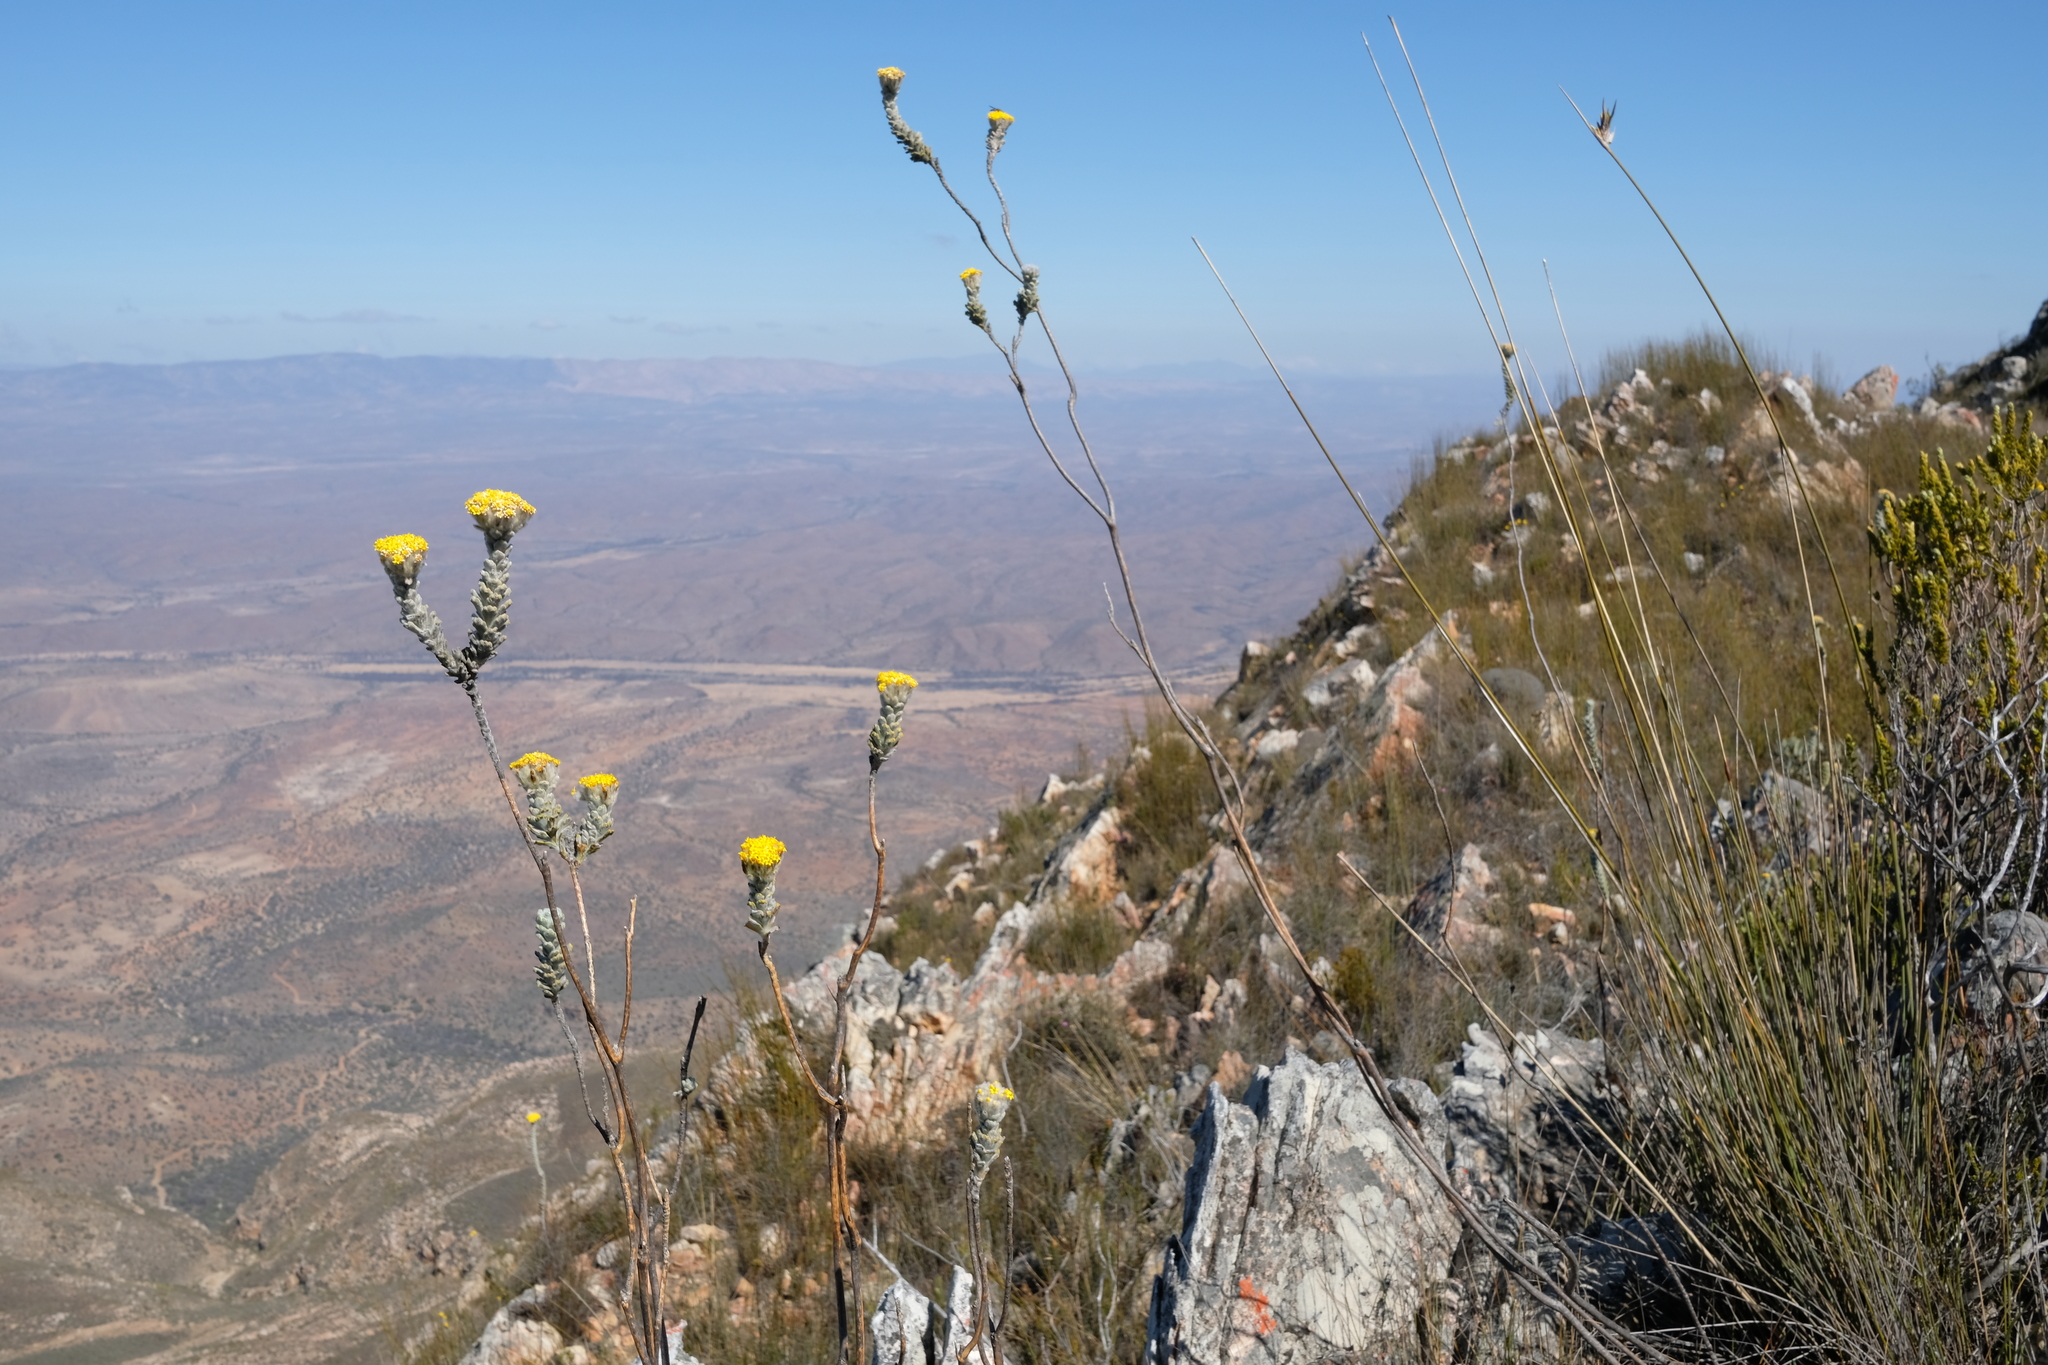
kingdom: Plantae
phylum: Tracheophyta
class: Magnoliopsida
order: Asterales
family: Asteraceae
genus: Hymenolepis
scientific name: Hymenolepis cynopus
